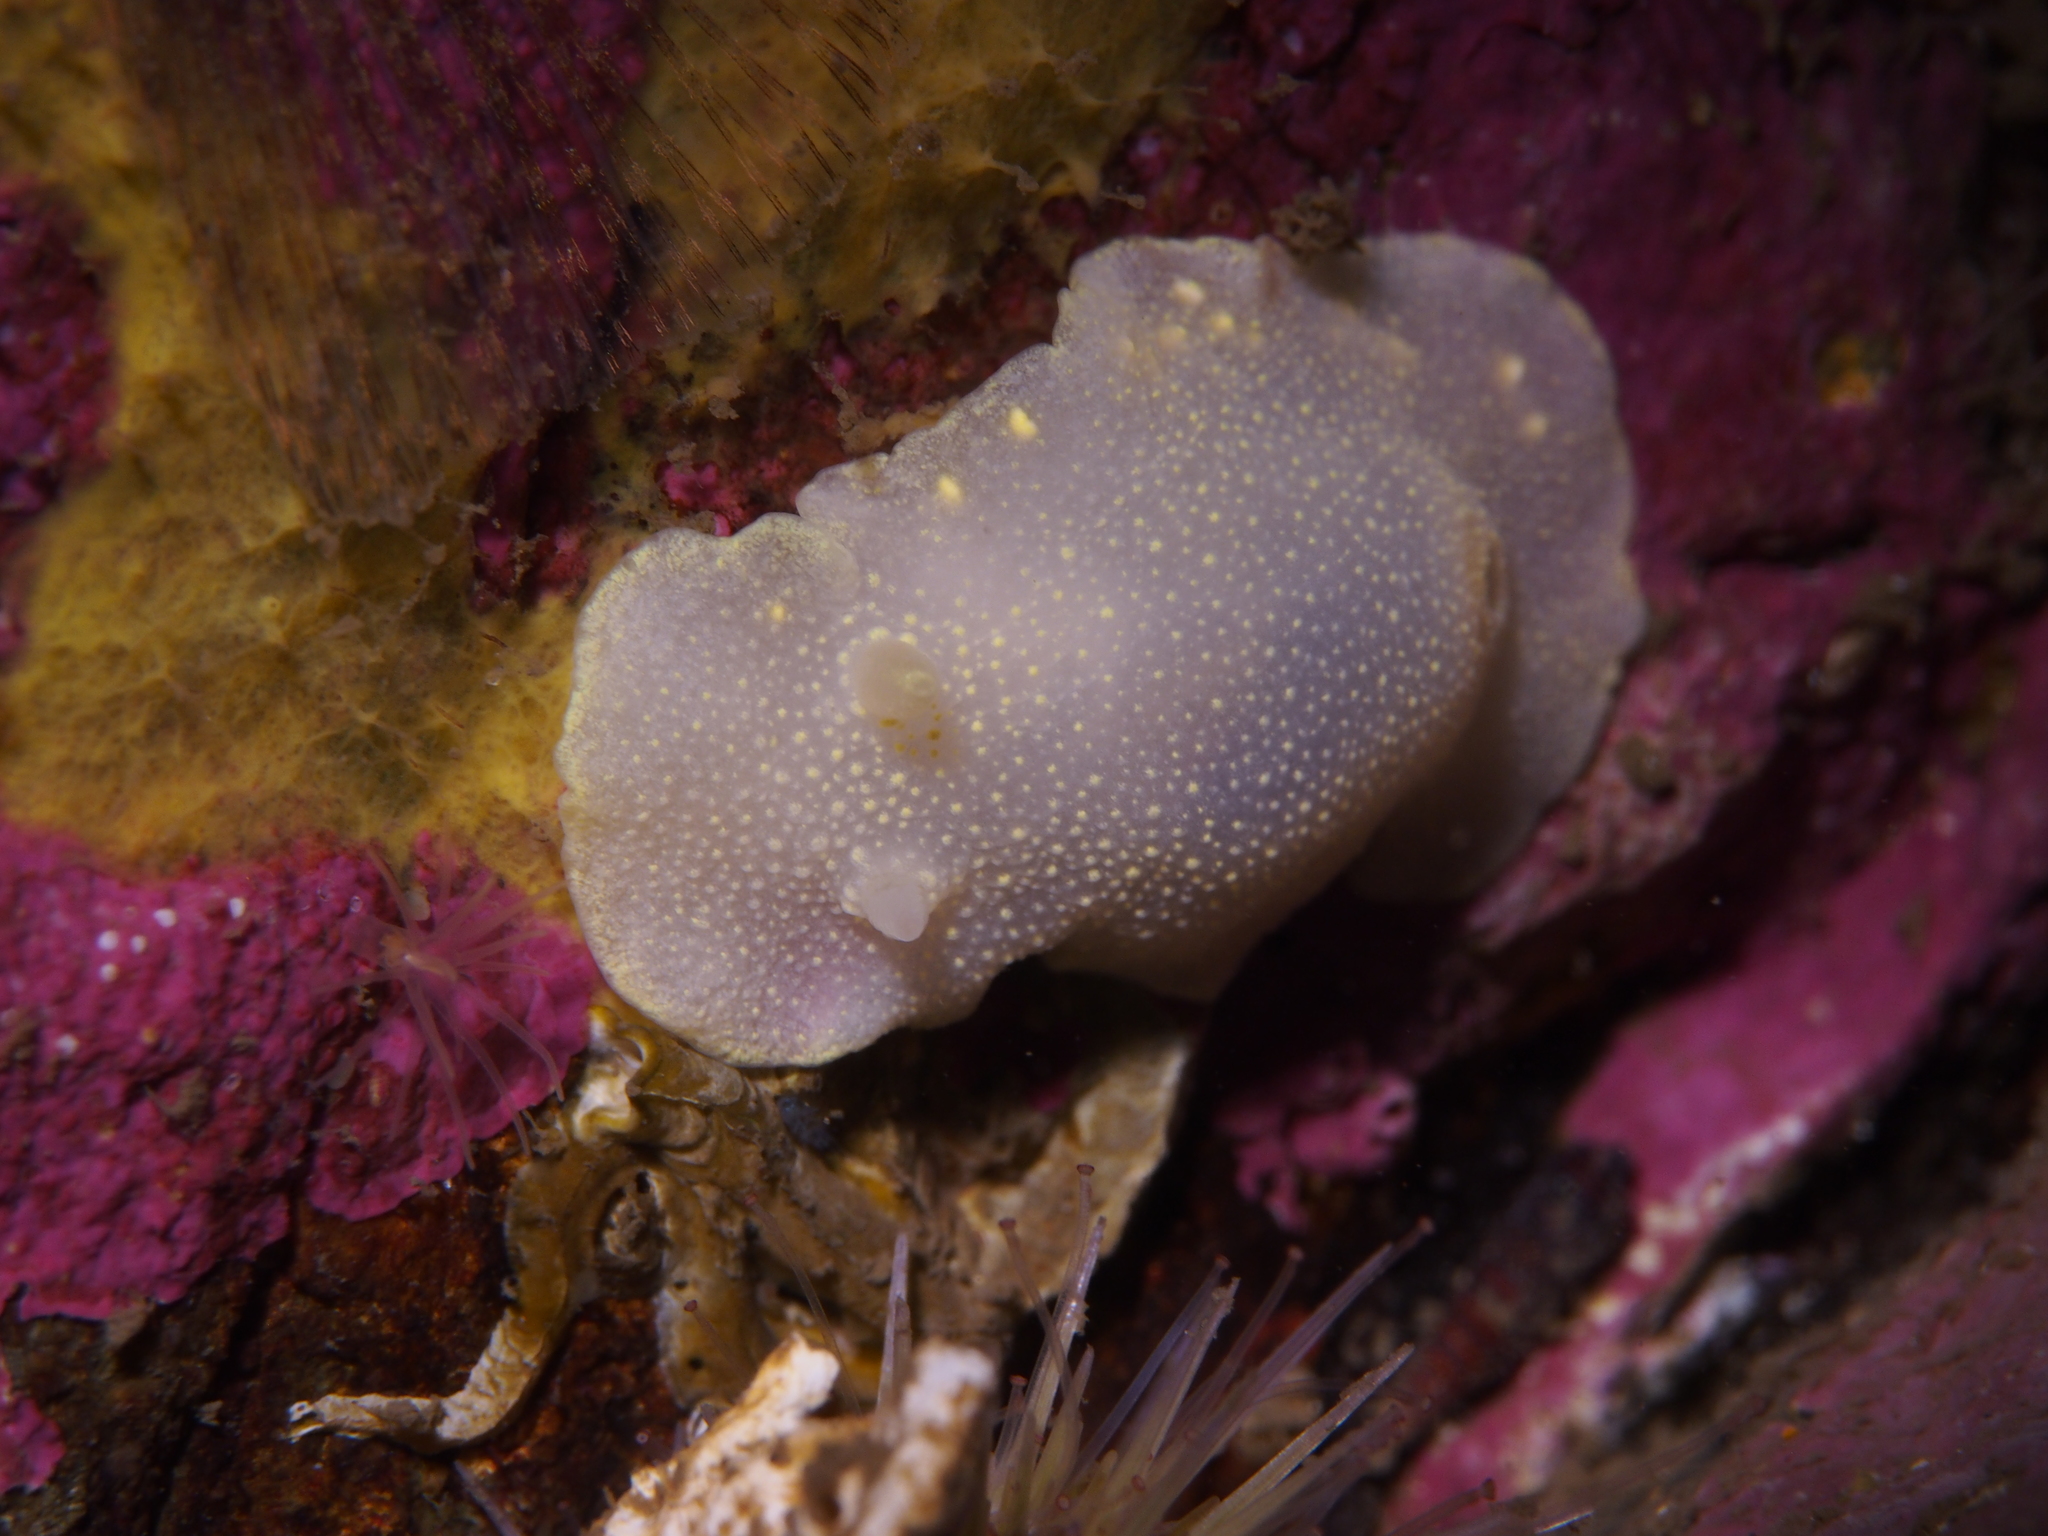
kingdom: Animalia
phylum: Mollusca
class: Gastropoda
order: Nudibranchia
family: Cadlinidae
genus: Cadlina
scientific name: Cadlina laevis
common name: White atlantic cadlina
